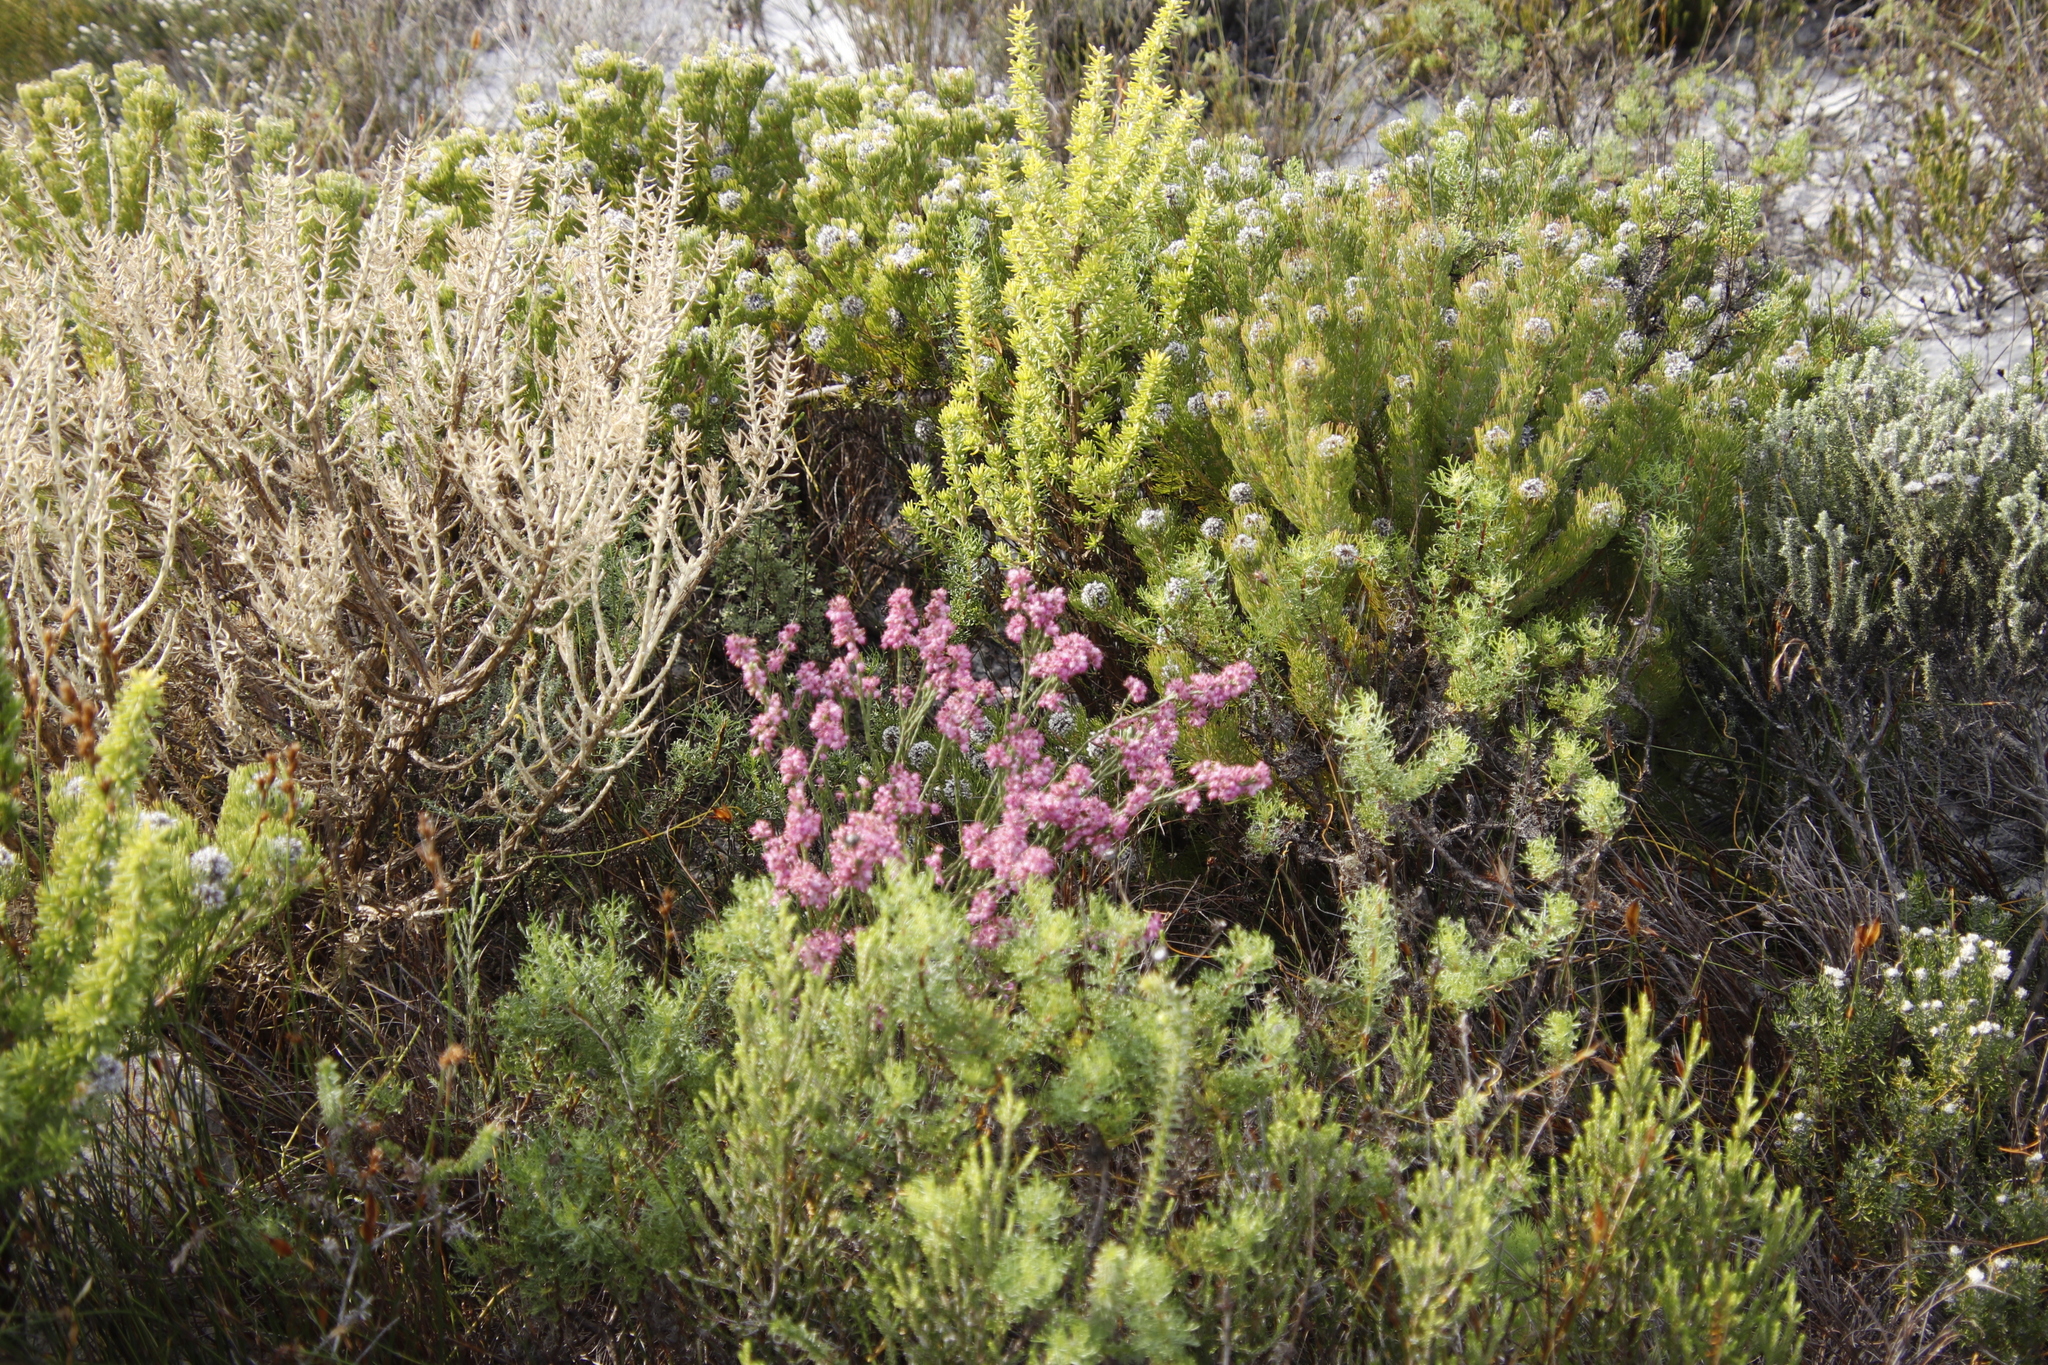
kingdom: Plantae
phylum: Tracheophyta
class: Magnoliopsida
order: Ericales
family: Ericaceae
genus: Erica
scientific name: Erica corifolia
